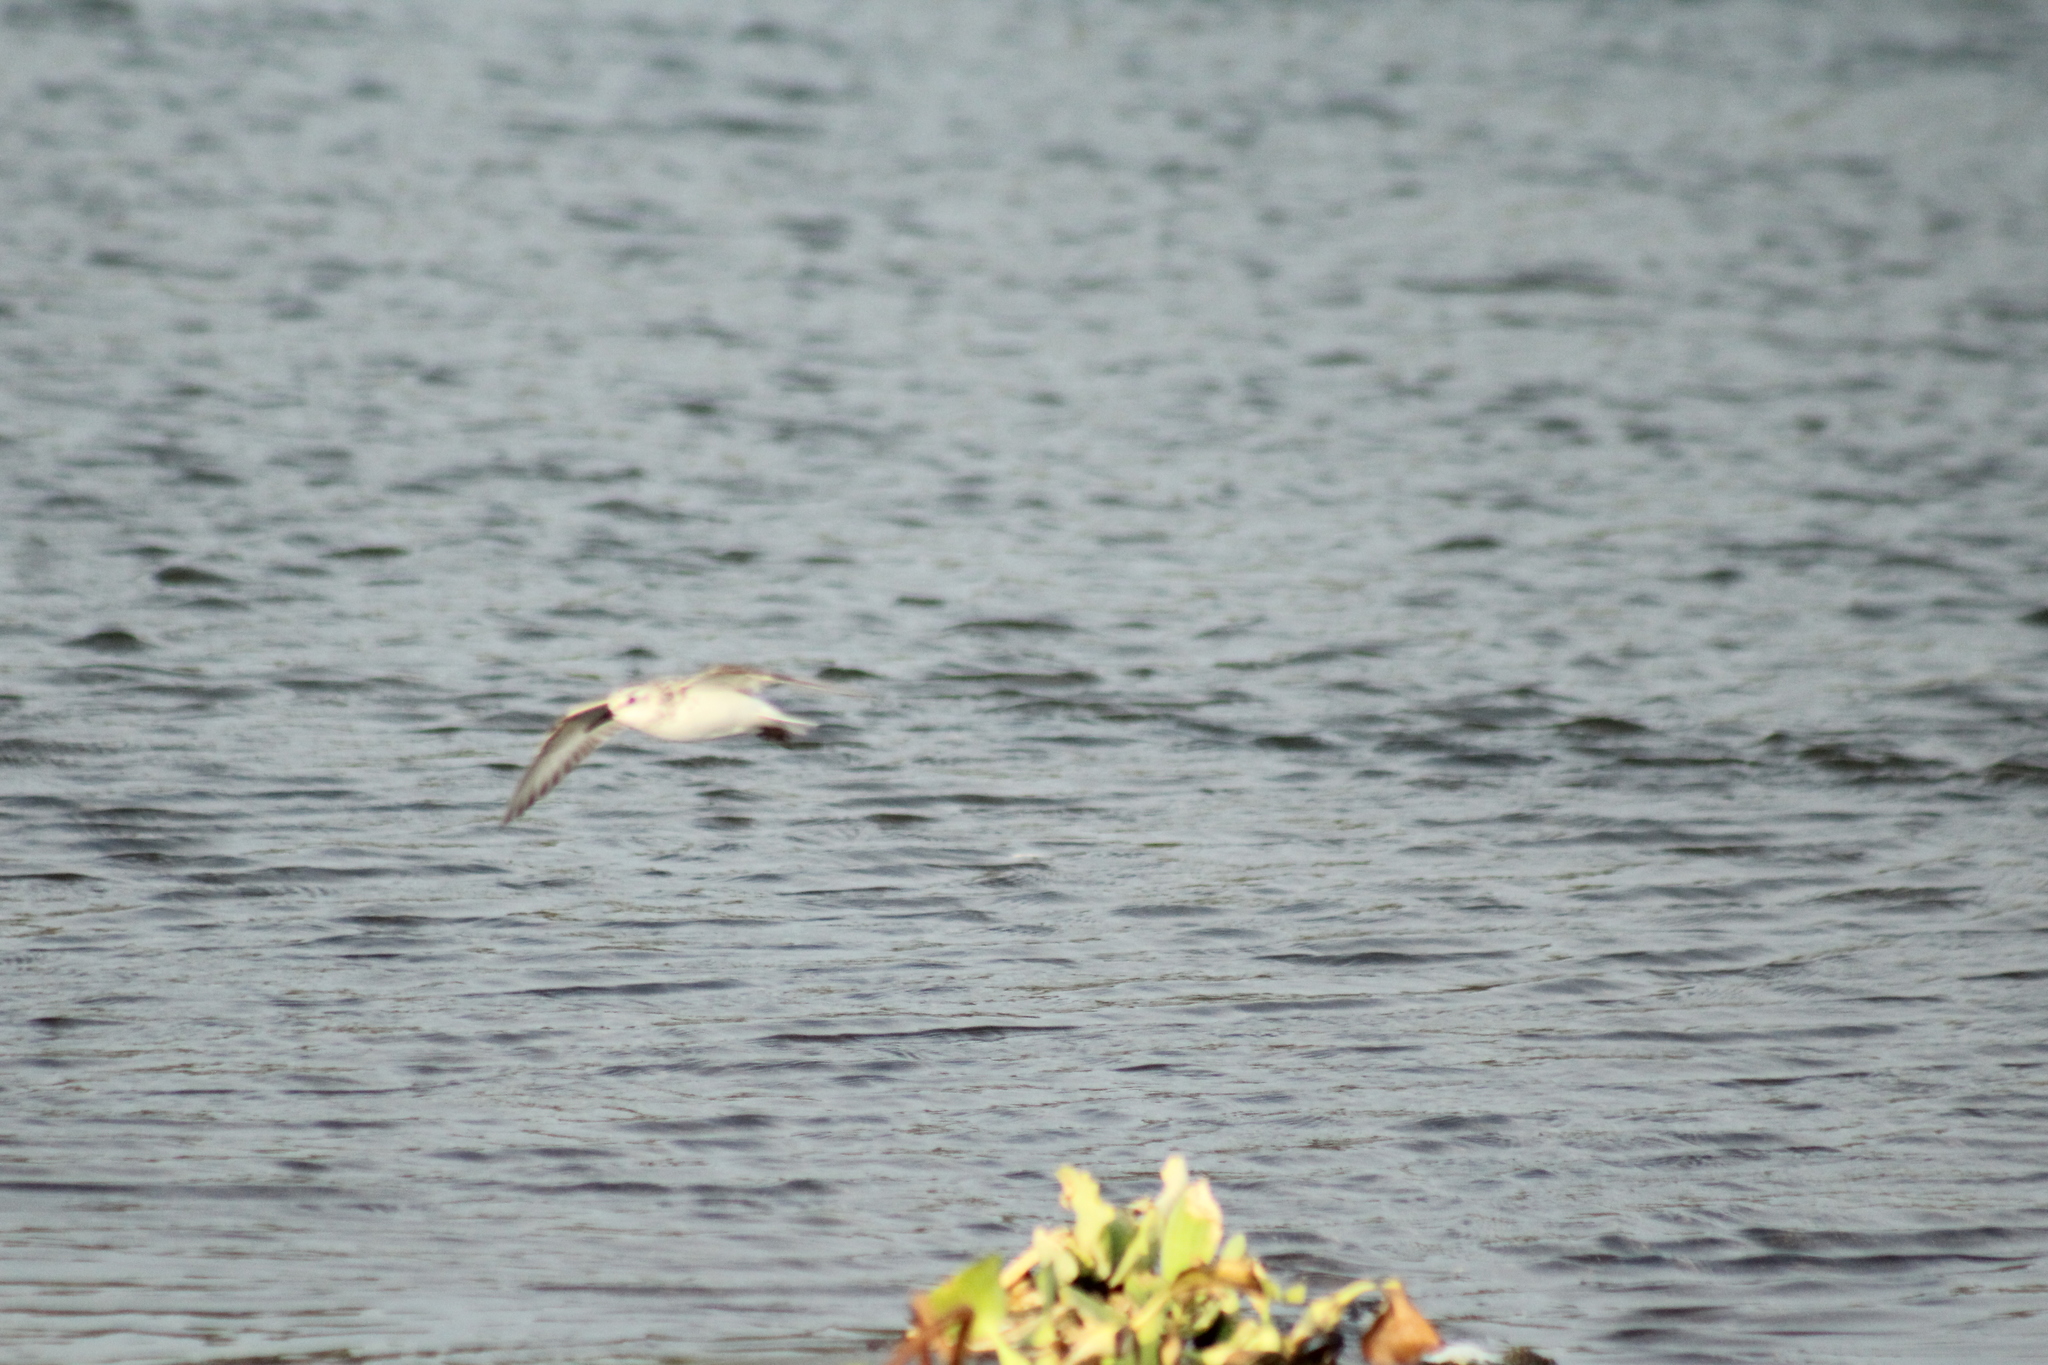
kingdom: Animalia
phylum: Chordata
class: Aves
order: Charadriiformes
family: Scolopacidae
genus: Calidris
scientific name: Calidris alba
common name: Sanderling
